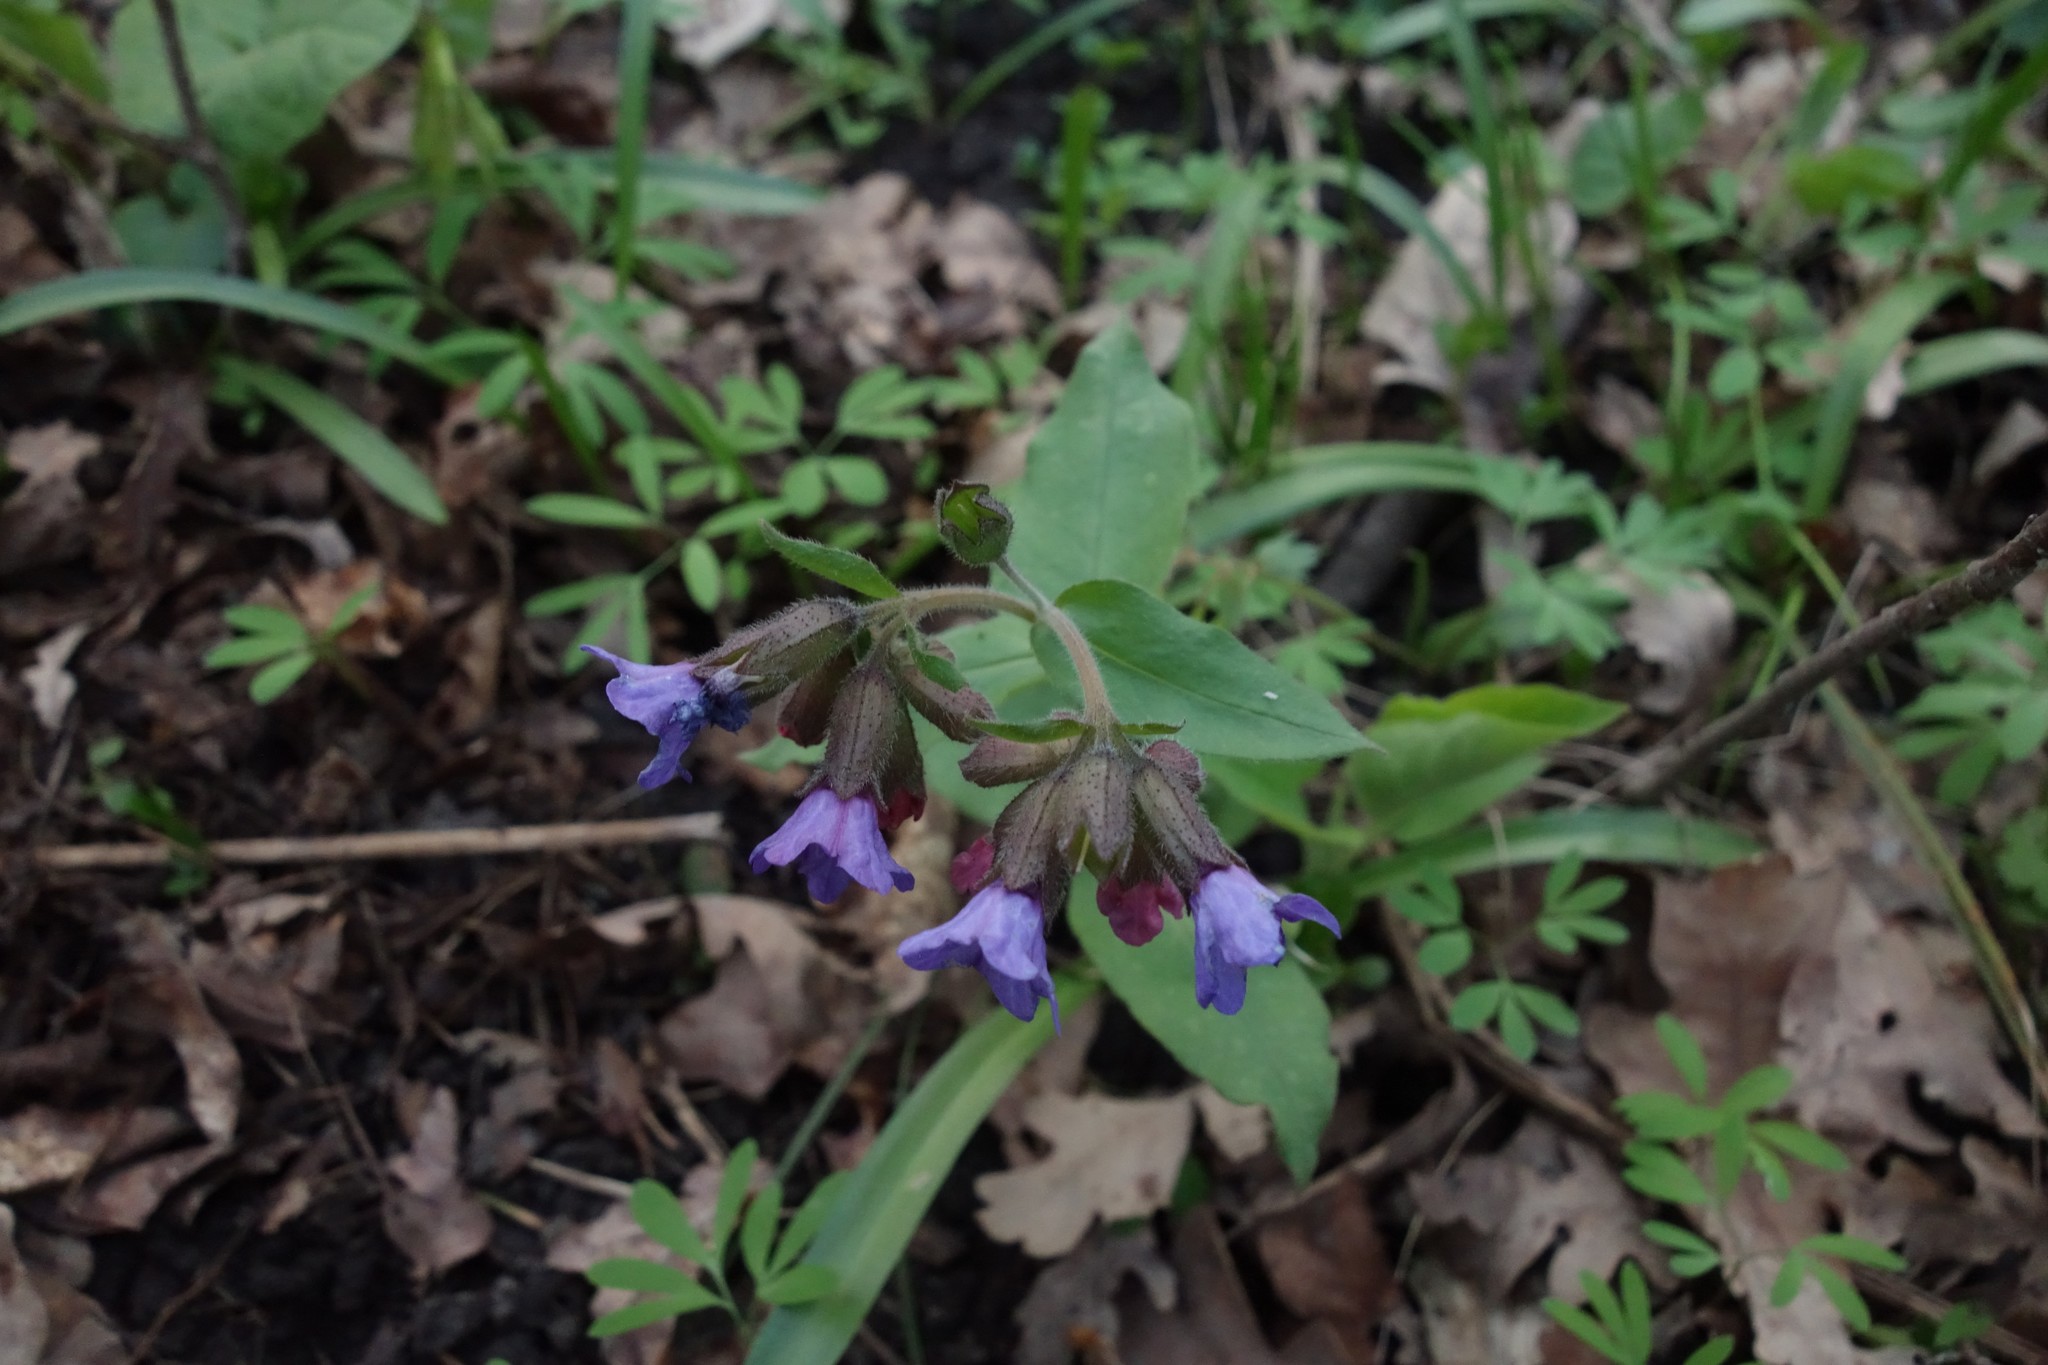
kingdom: Plantae
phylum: Tracheophyta
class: Magnoliopsida
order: Boraginales
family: Boraginaceae
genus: Pulmonaria
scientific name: Pulmonaria obscura
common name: Suffolk lungwort
